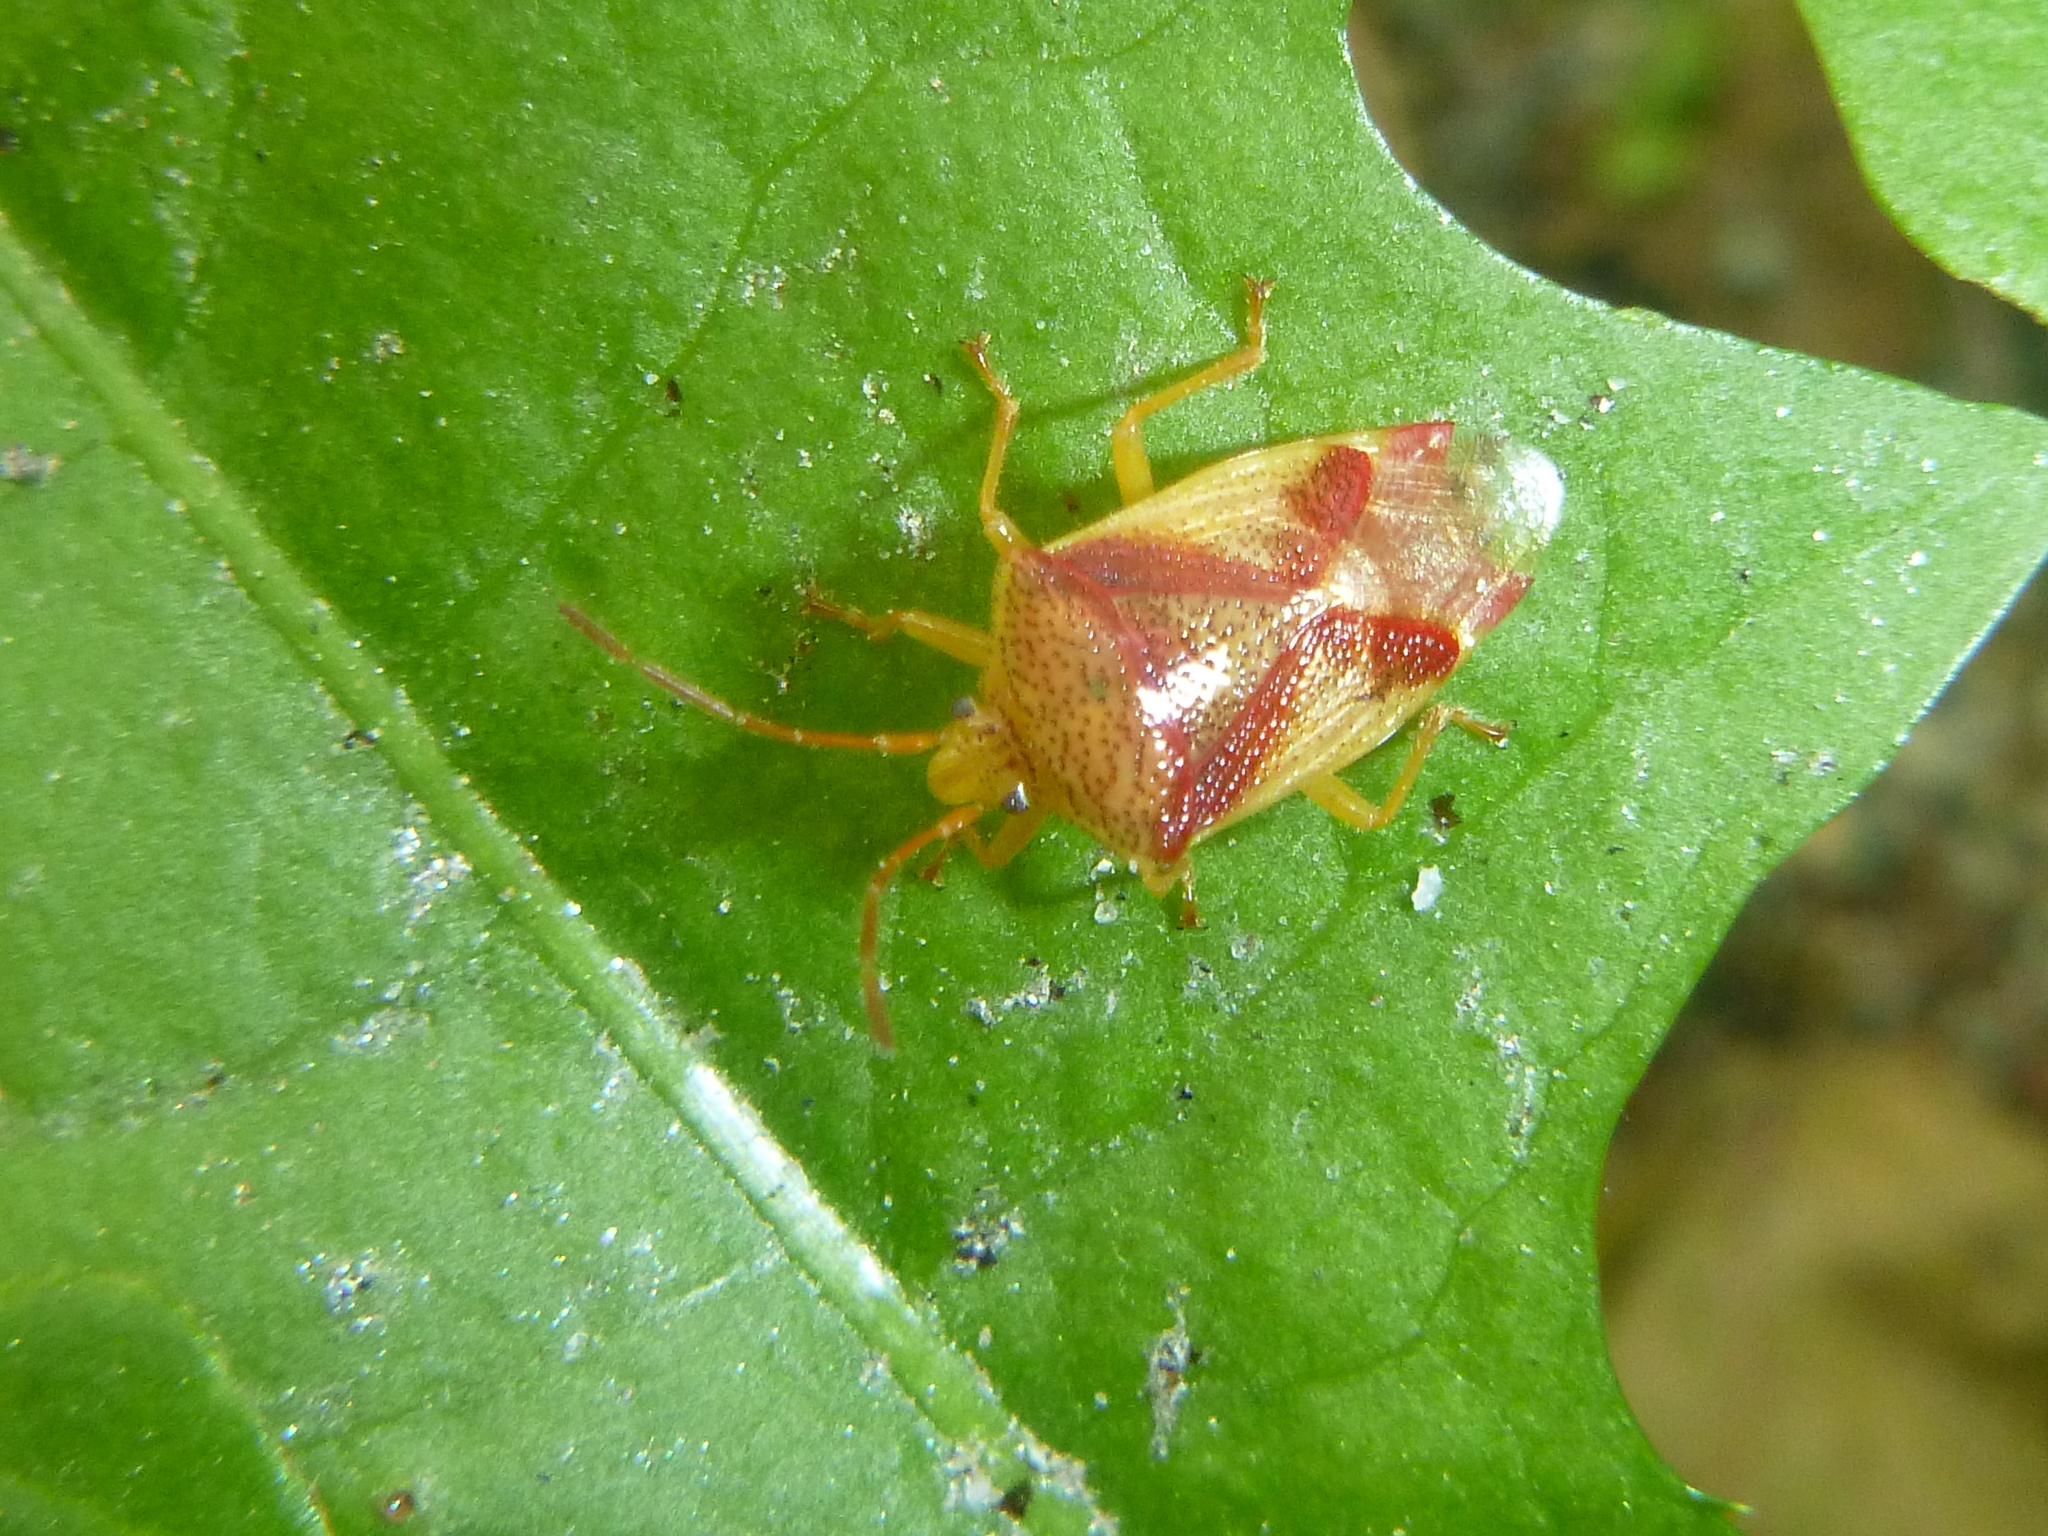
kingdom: Animalia
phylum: Arthropoda
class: Insecta
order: Hemiptera
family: Acanthosomatidae
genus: Elasmostethus
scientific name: Elasmostethus cruciatus
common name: Red-cross shield bug
